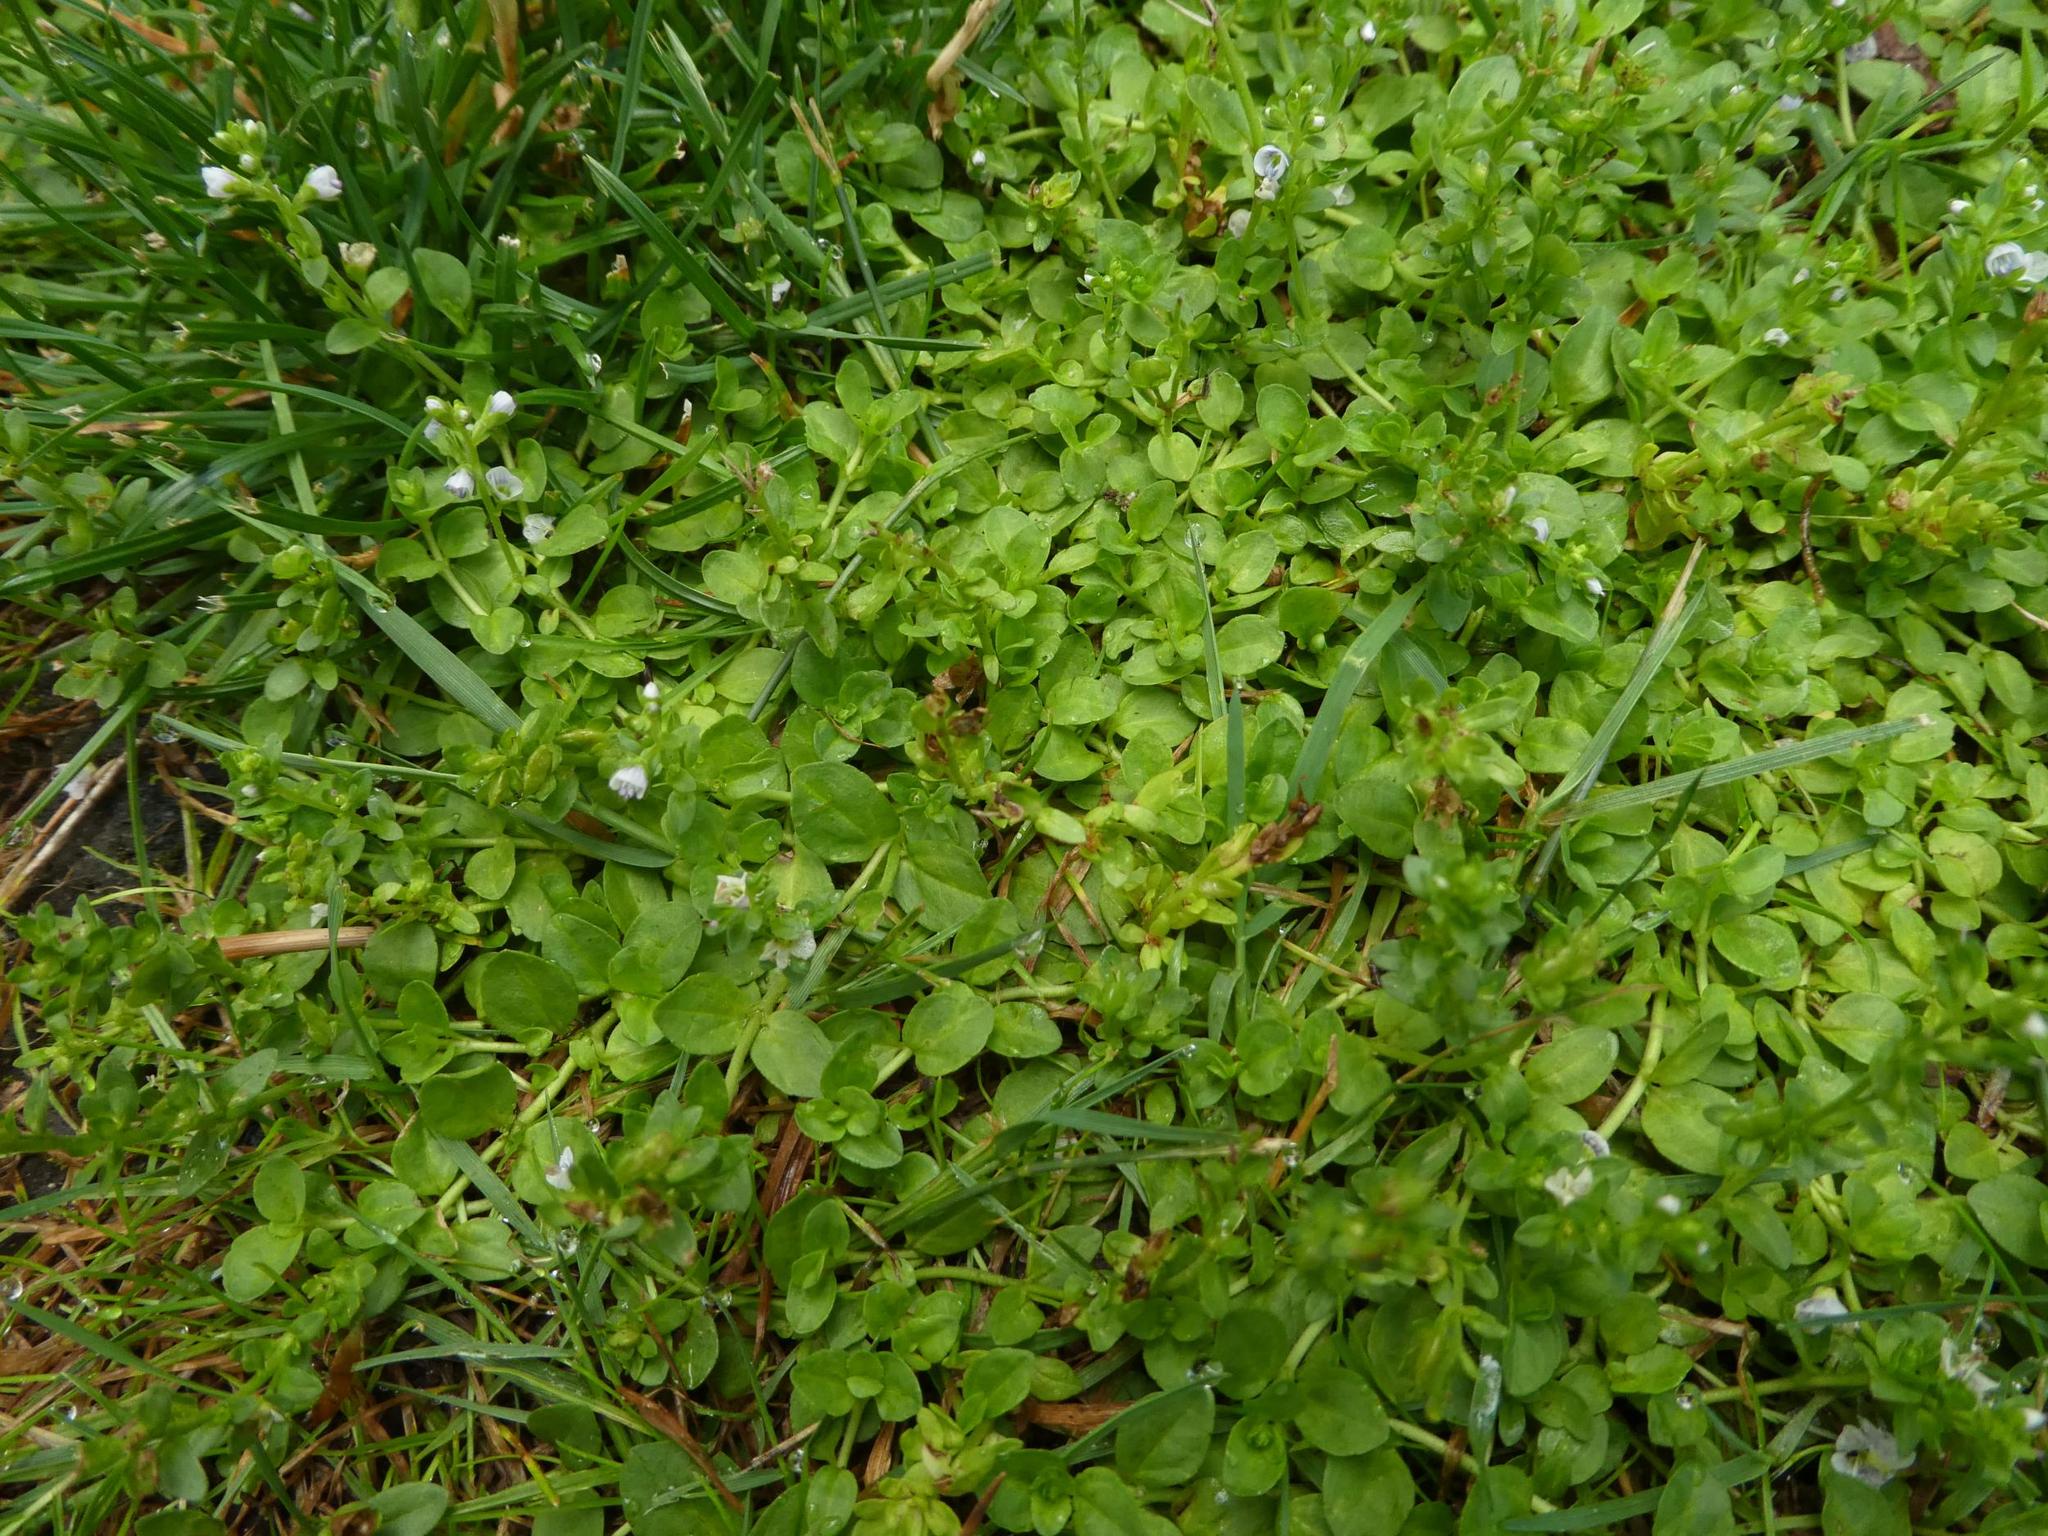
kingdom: Plantae
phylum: Tracheophyta
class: Magnoliopsida
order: Lamiales
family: Plantaginaceae
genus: Veronica
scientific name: Veronica serpyllifolia
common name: Thyme-leaved speedwell
